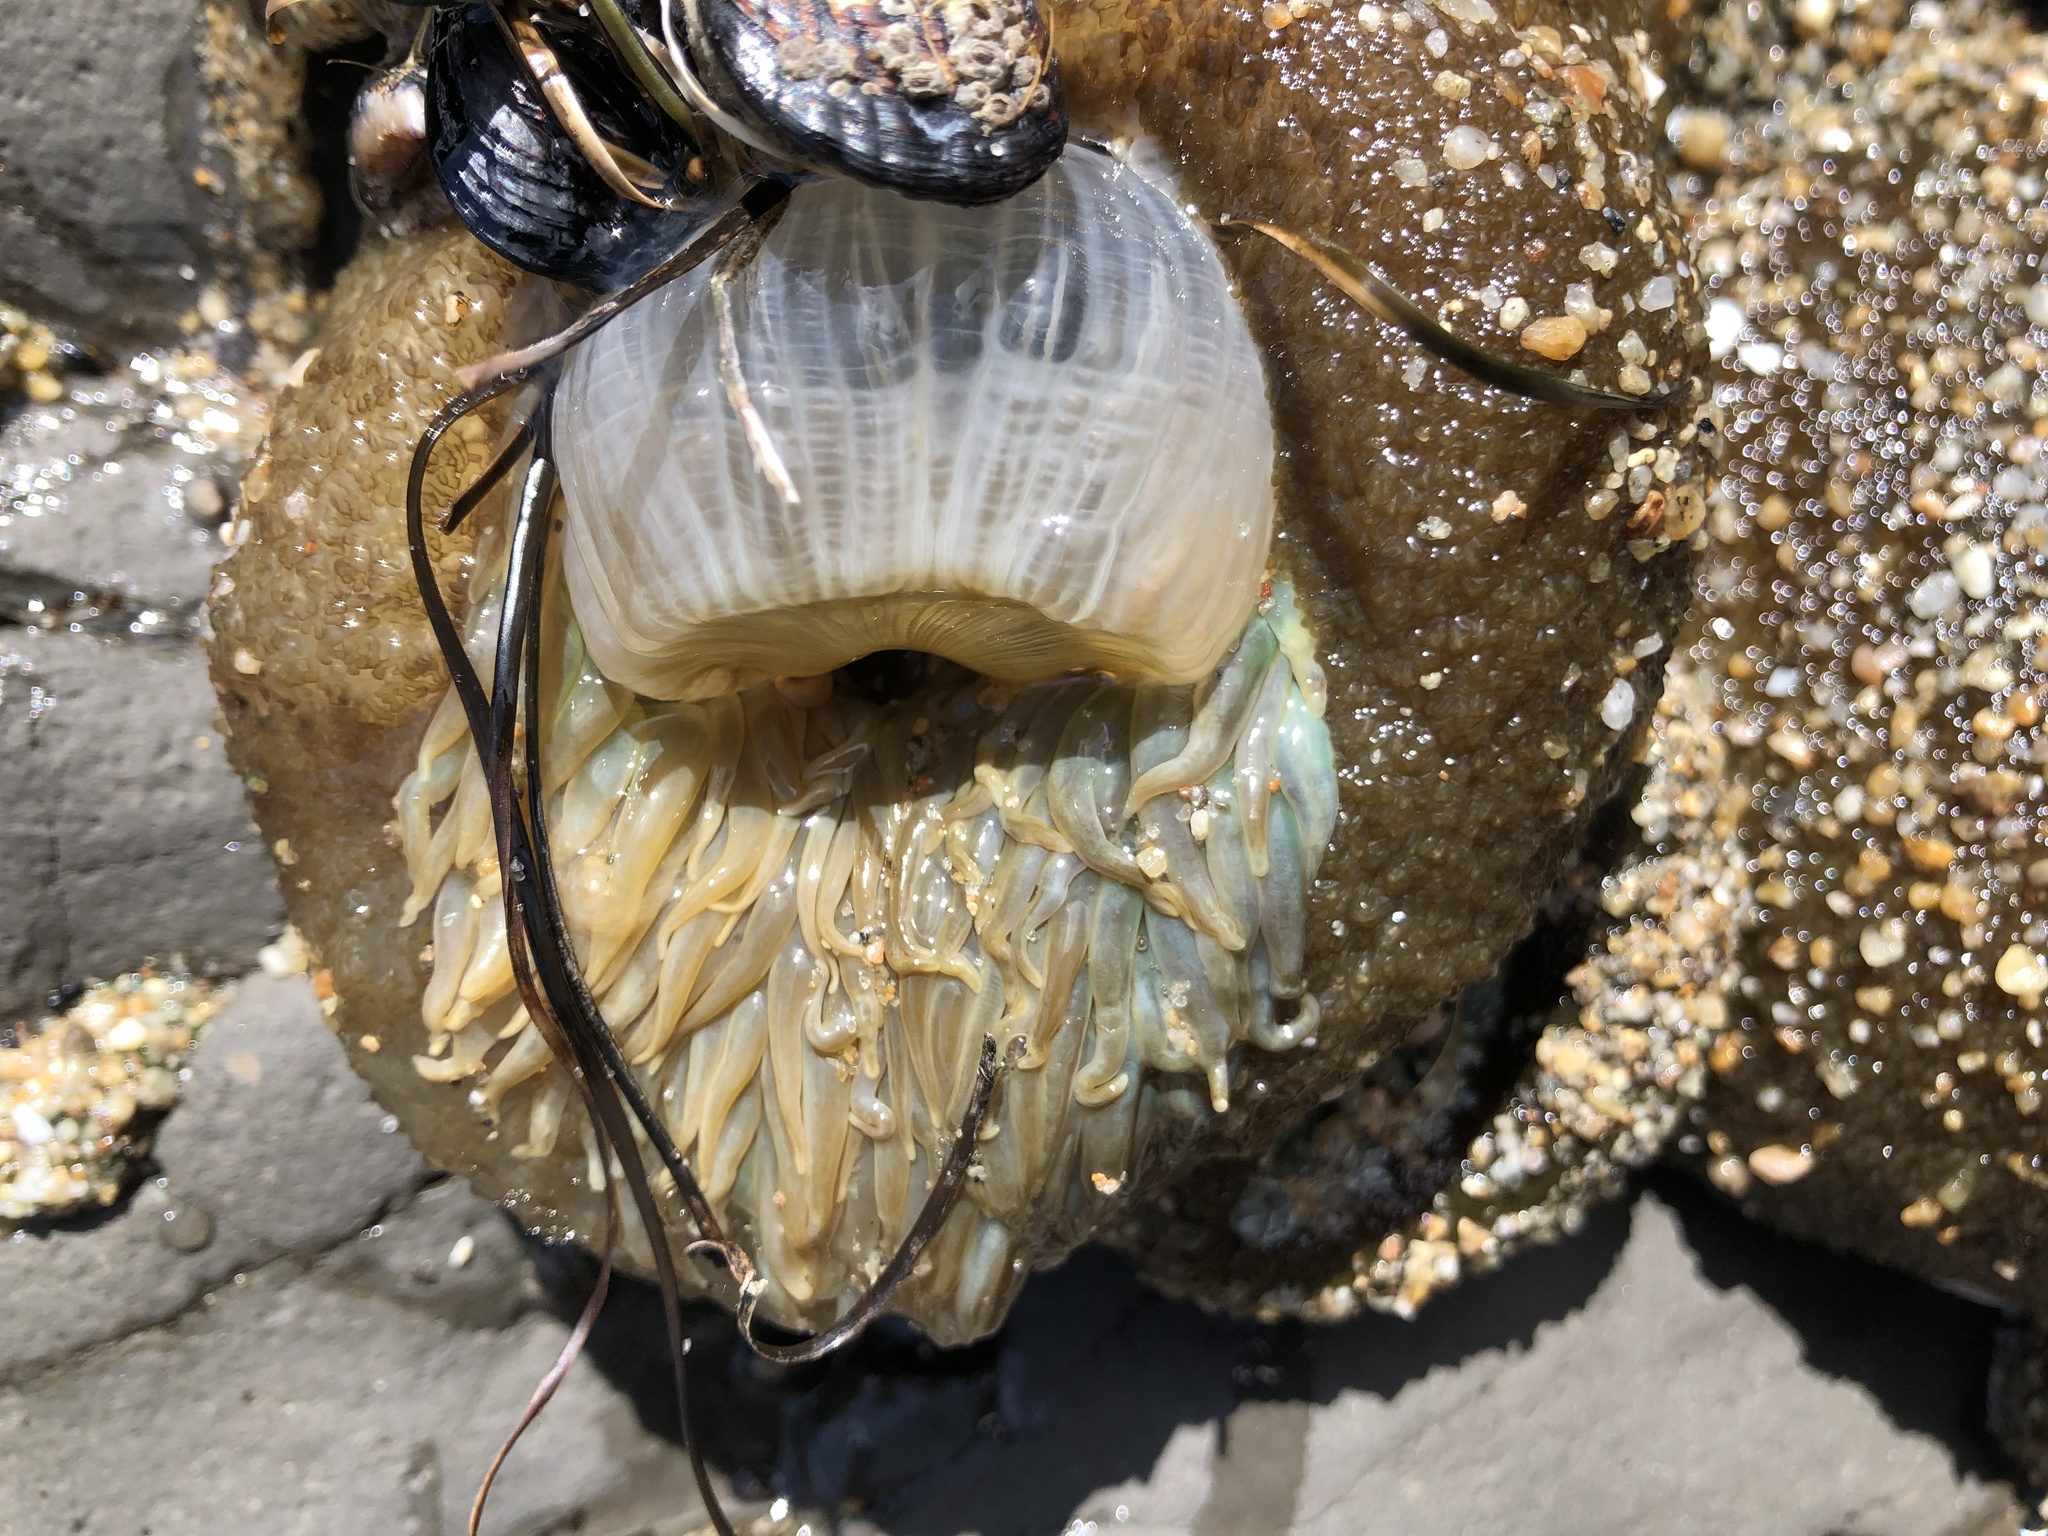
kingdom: Animalia
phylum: Cnidaria
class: Anthozoa
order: Actiniaria
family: Actiniidae
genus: Anthopleura
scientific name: Anthopleura xanthogrammica
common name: Giant green anemone
